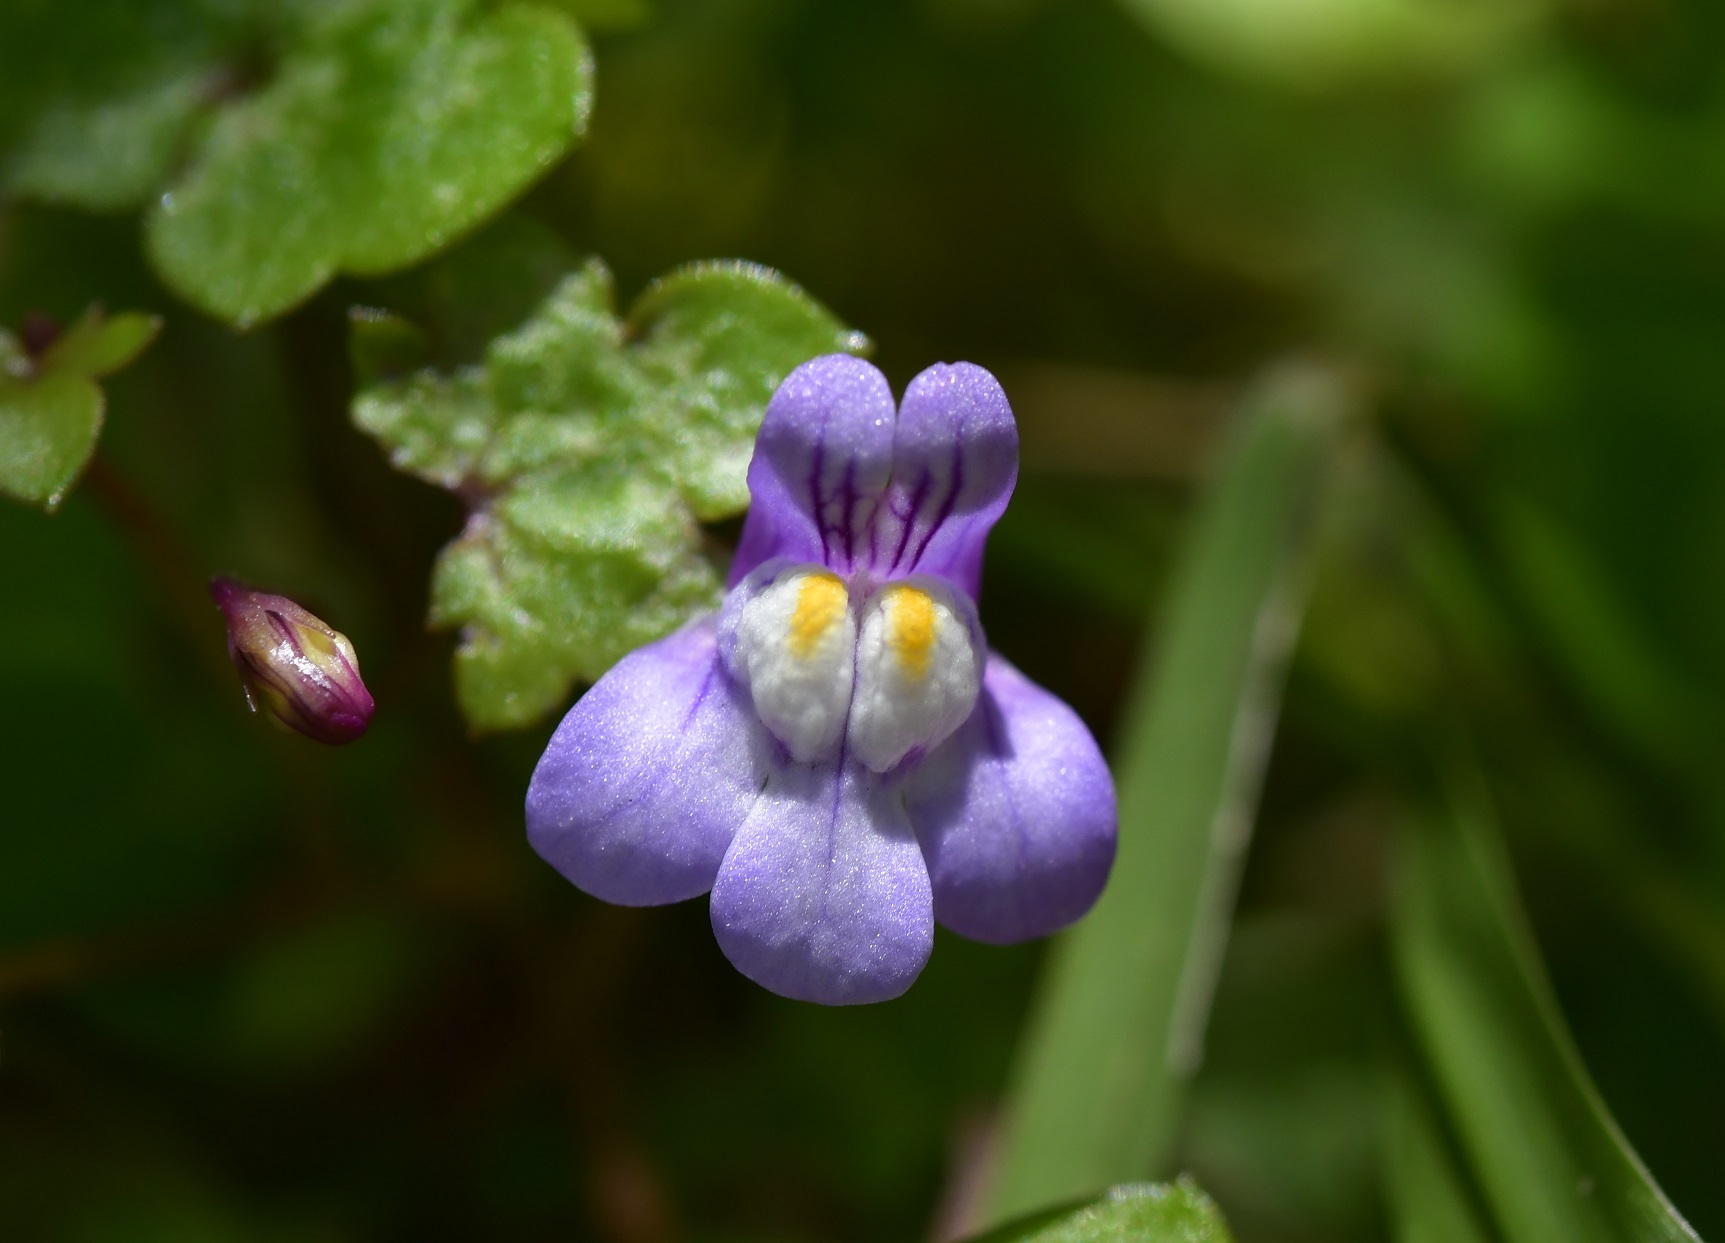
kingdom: Plantae
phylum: Tracheophyta
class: Magnoliopsida
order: Lamiales
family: Plantaginaceae
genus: Cymbalaria
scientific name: Cymbalaria muralis
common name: Ivy-leaved toadflax
